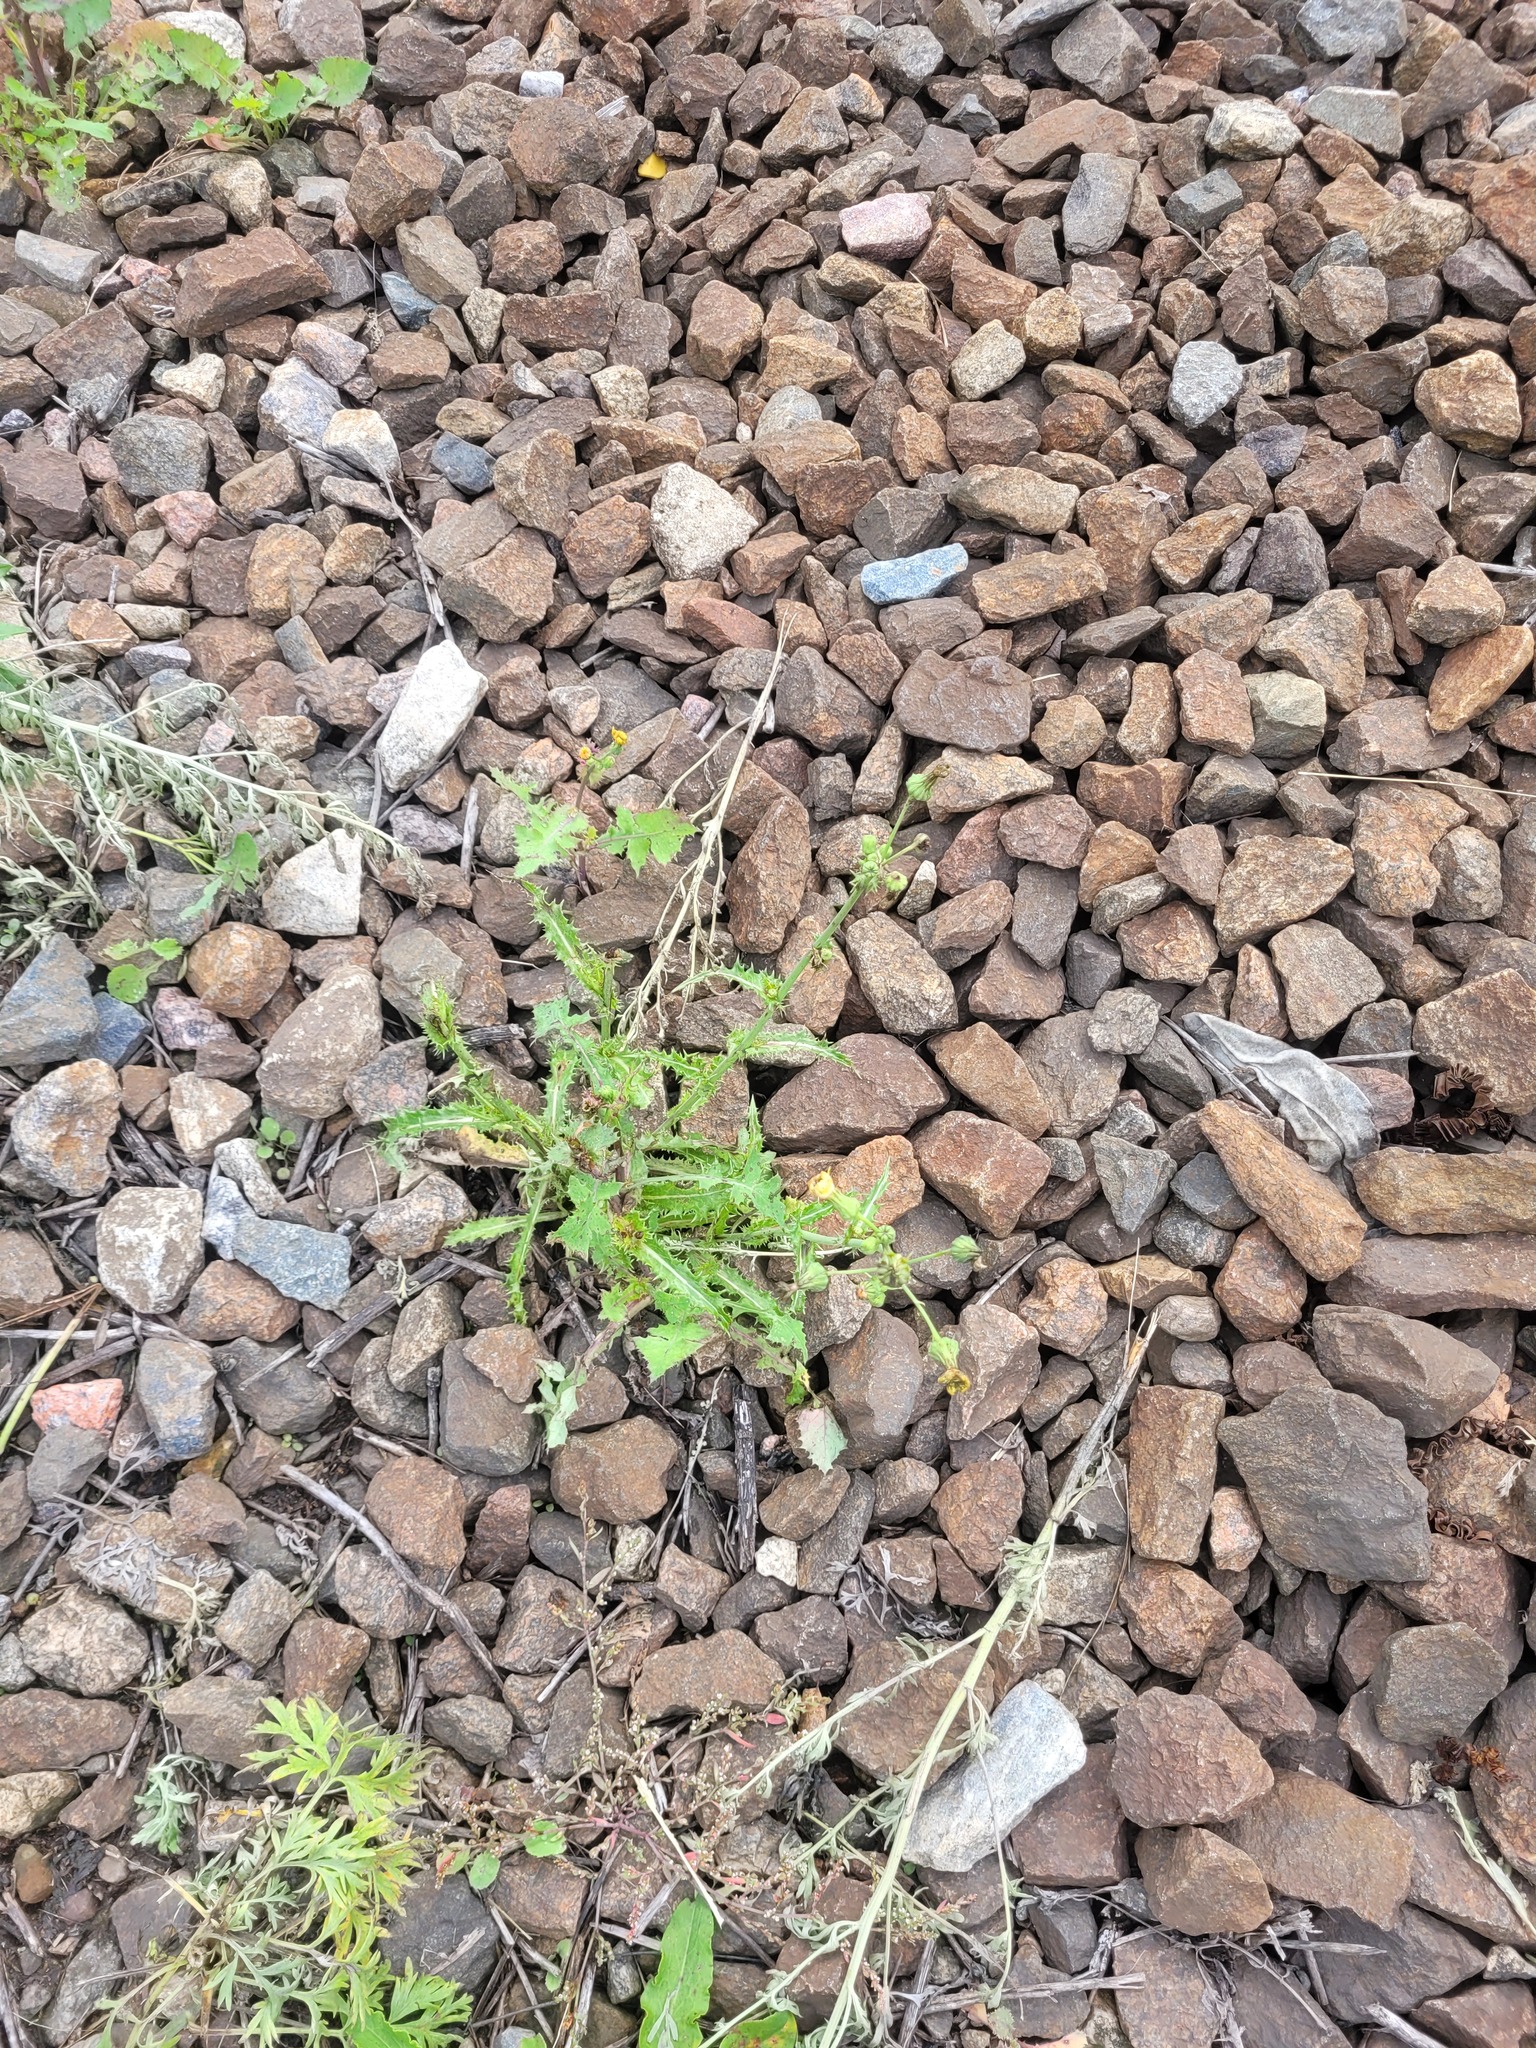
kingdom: Plantae
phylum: Tracheophyta
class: Magnoliopsida
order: Asterales
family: Asteraceae
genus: Sonchus
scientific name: Sonchus asper
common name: Prickly sow-thistle
